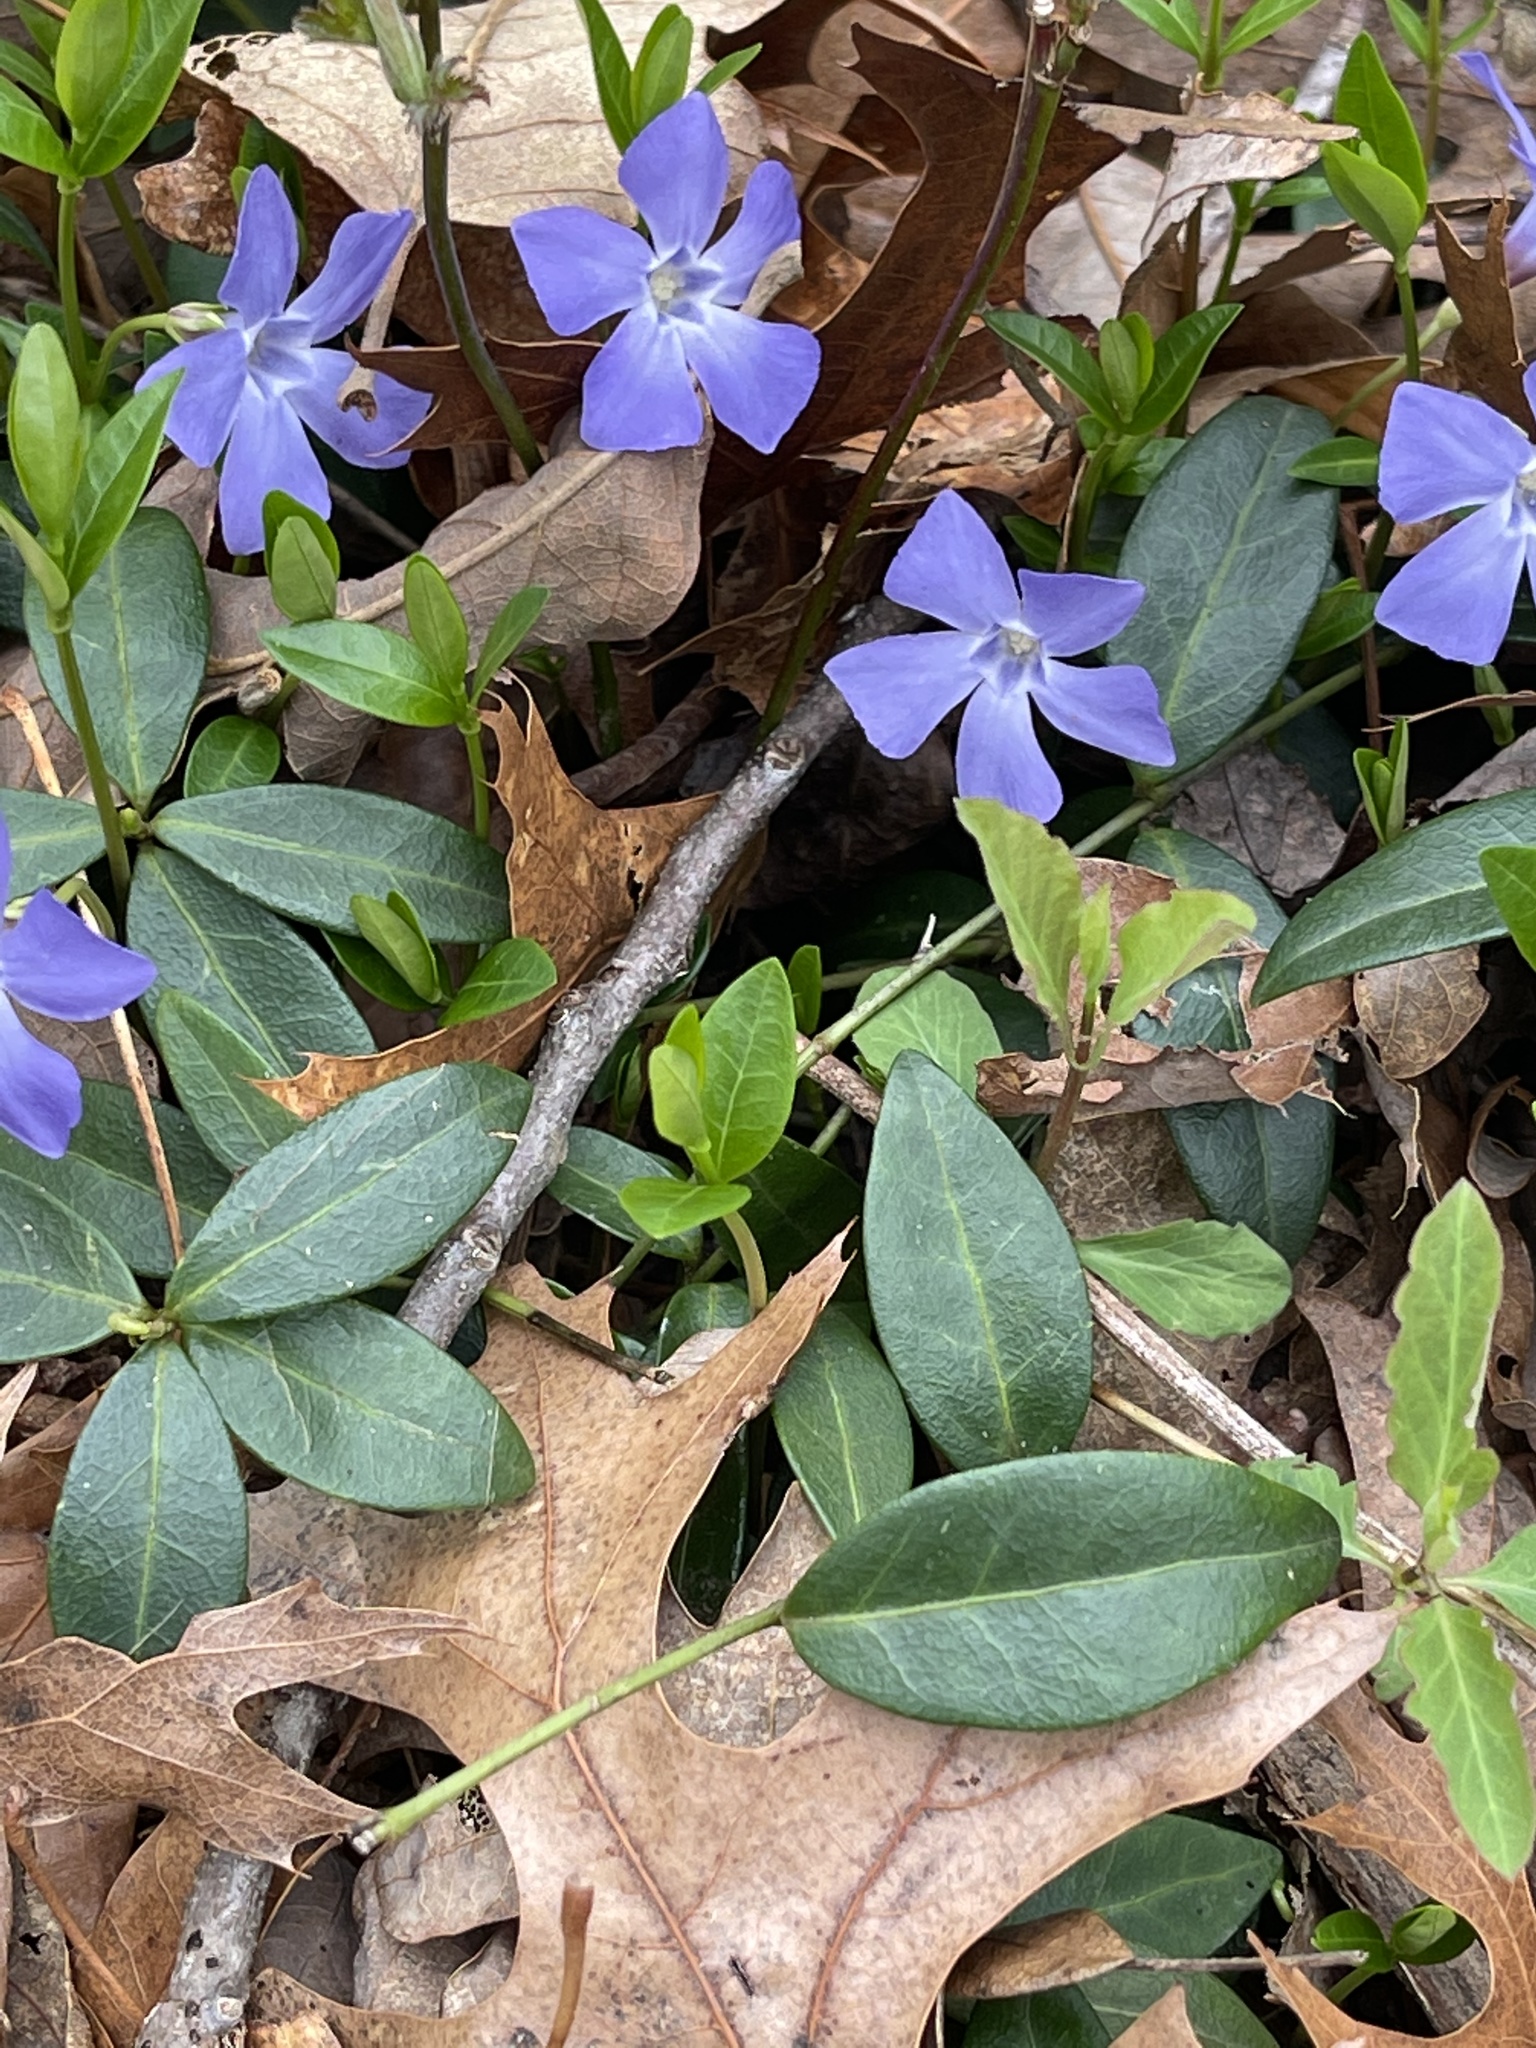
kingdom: Plantae
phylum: Tracheophyta
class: Magnoliopsida
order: Gentianales
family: Apocynaceae
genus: Vinca
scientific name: Vinca minor
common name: Lesser periwinkle
